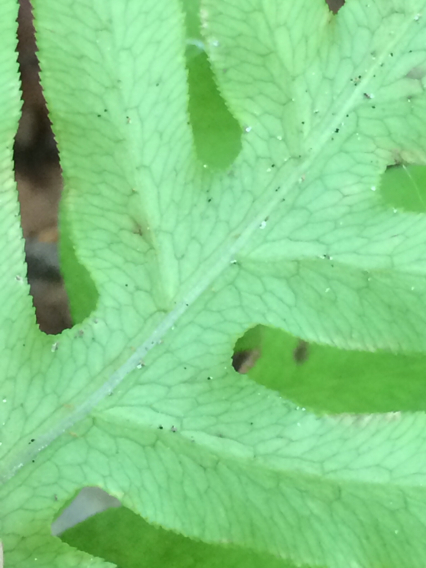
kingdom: Plantae
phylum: Tracheophyta
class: Polypodiopsida
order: Polypodiales
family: Blechnaceae
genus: Lorinseria
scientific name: Lorinseria areolata
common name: Dwarf chain fern
